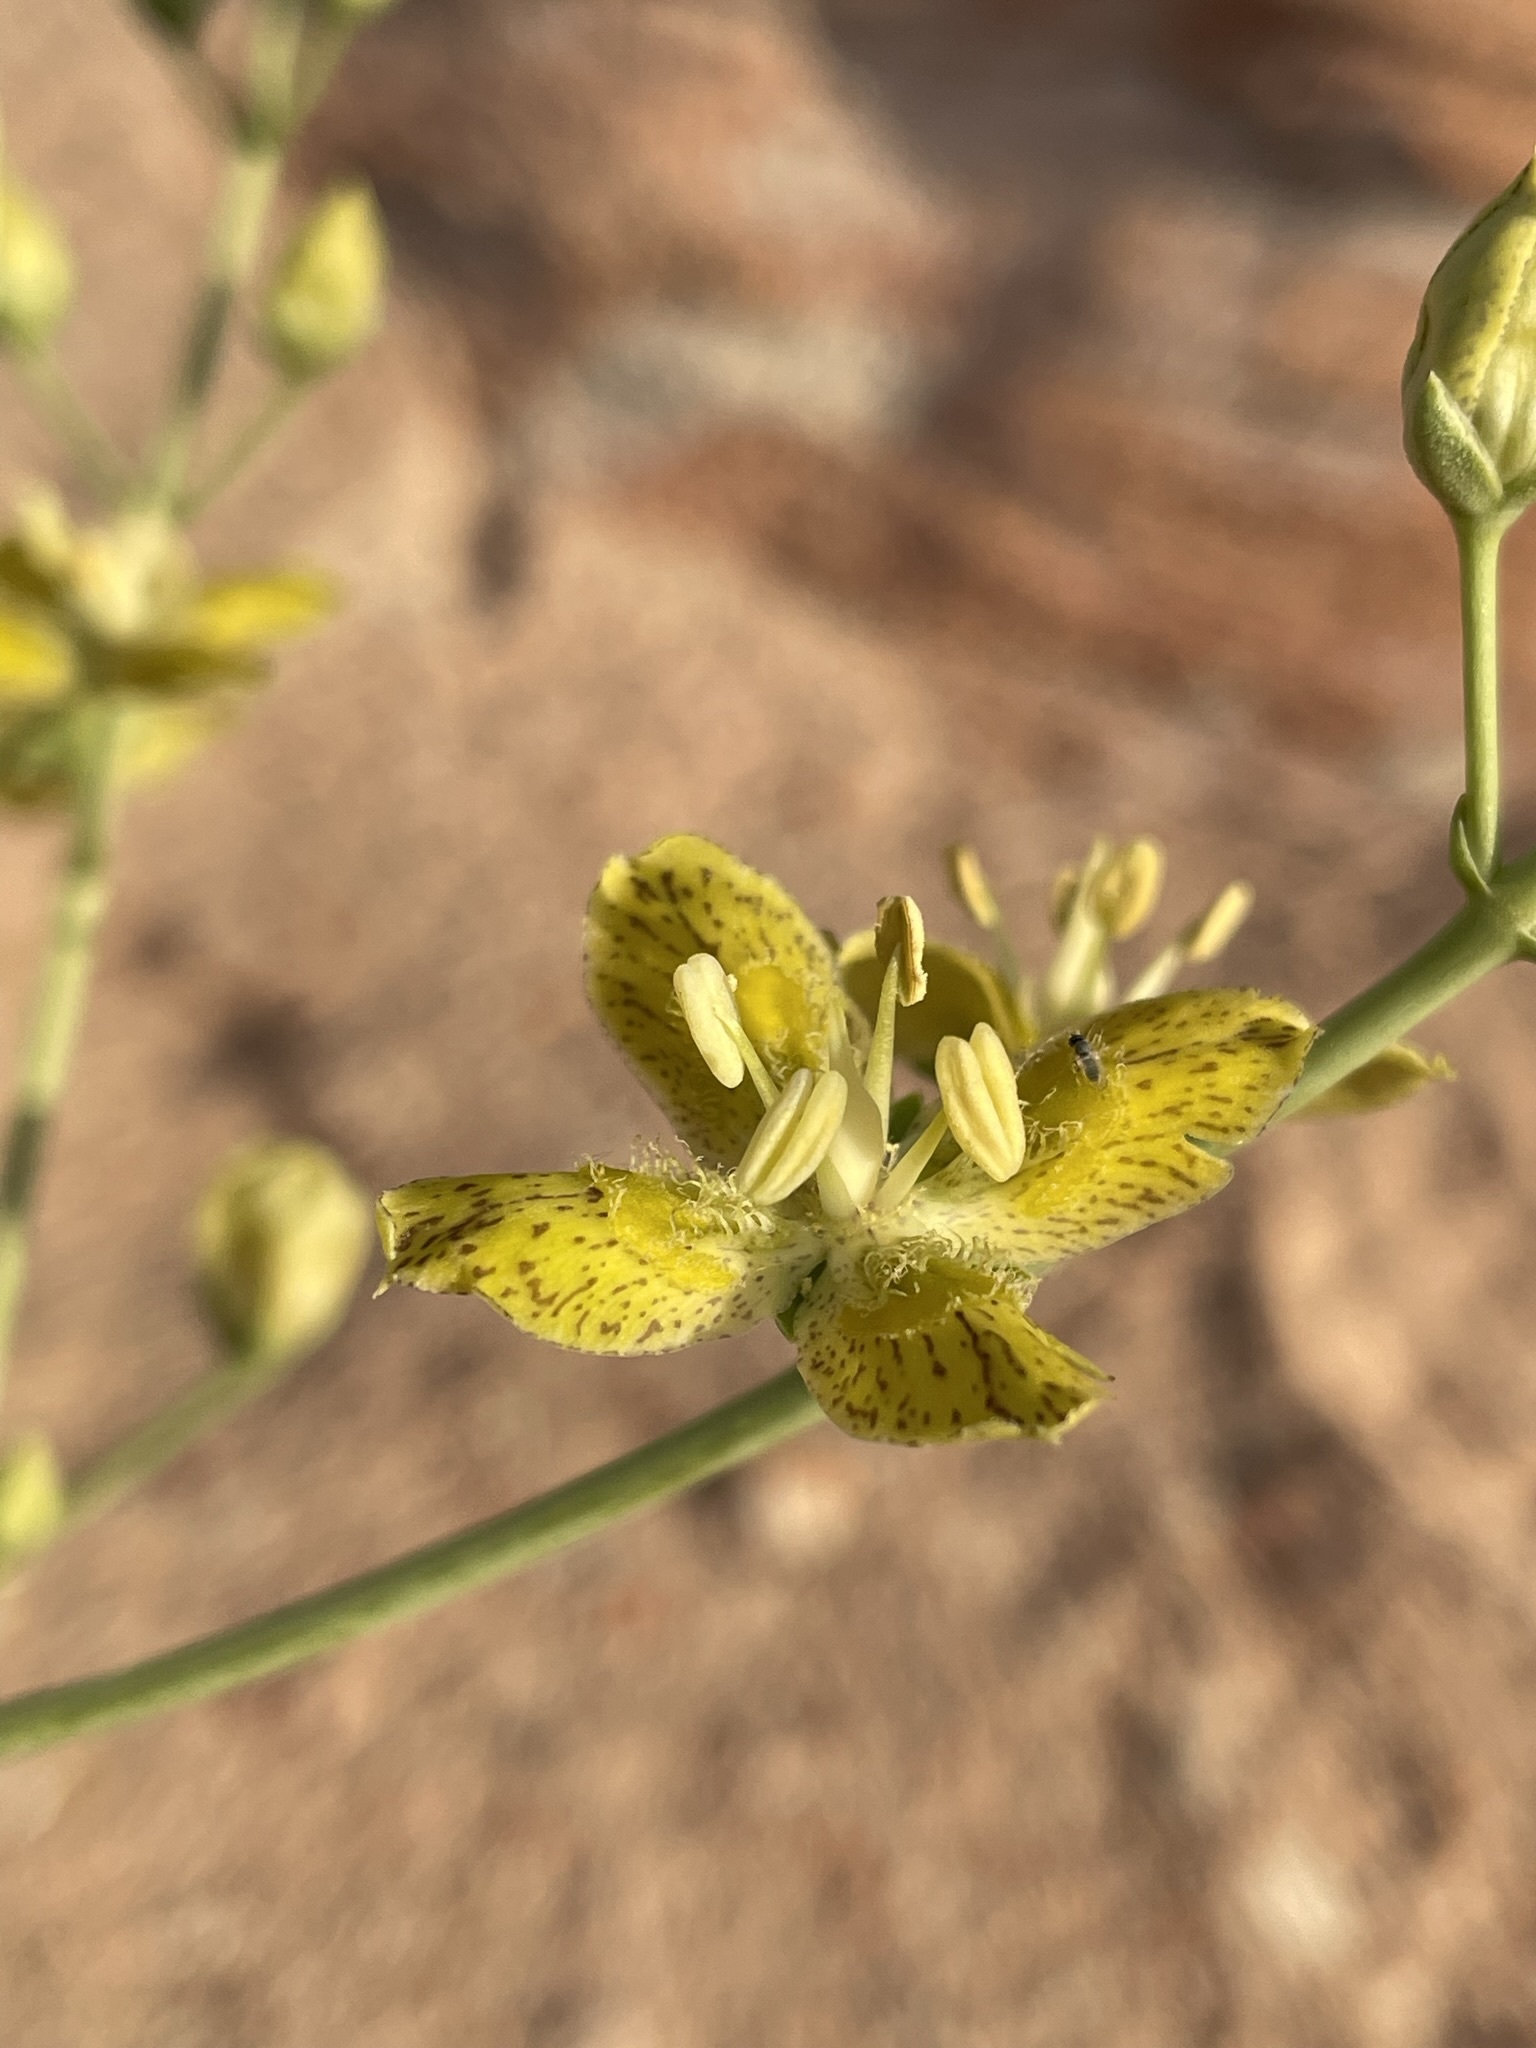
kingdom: Plantae
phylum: Tracheophyta
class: Magnoliopsida
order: Gentianales
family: Gentianaceae
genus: Frasera
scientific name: Frasera paniculata
